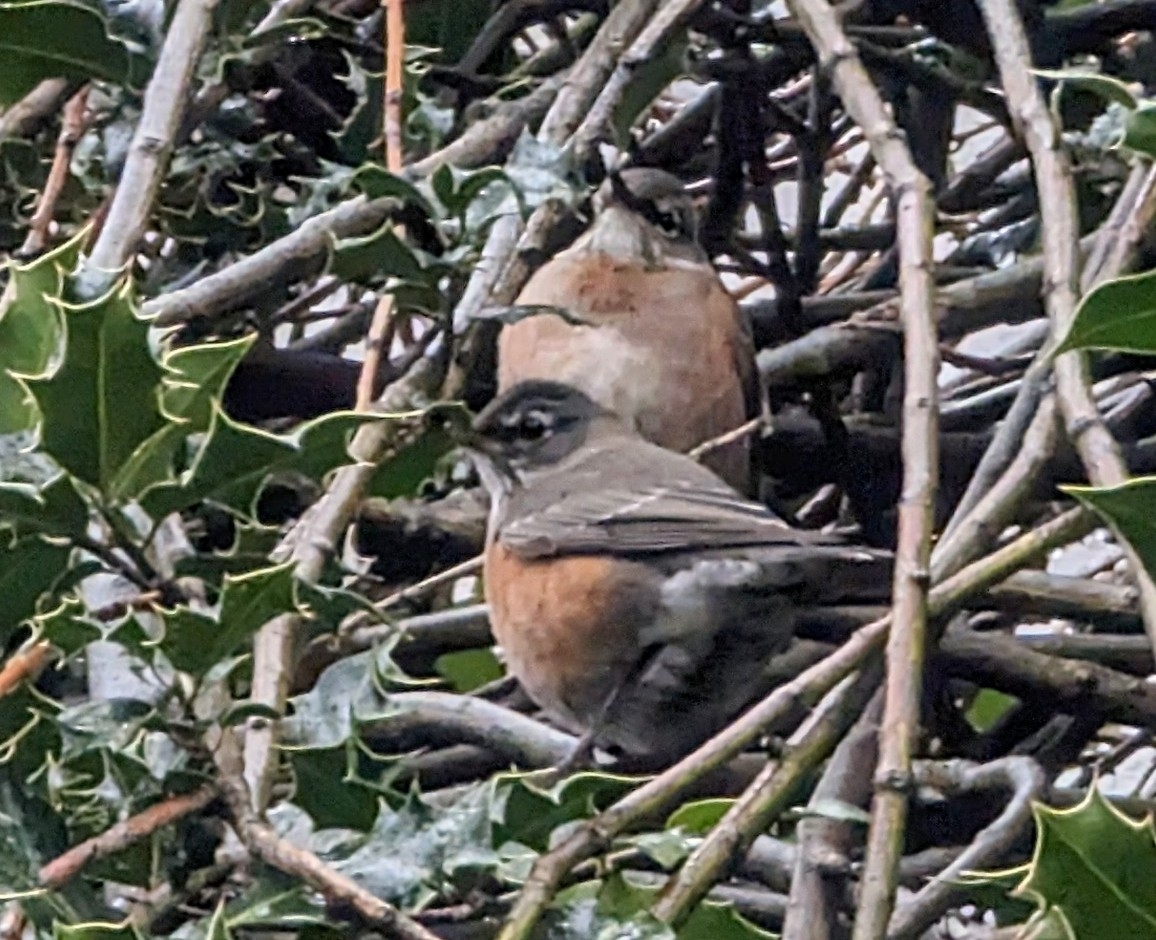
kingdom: Animalia
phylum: Chordata
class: Aves
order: Passeriformes
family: Turdidae
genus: Turdus
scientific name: Turdus migratorius
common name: American robin
